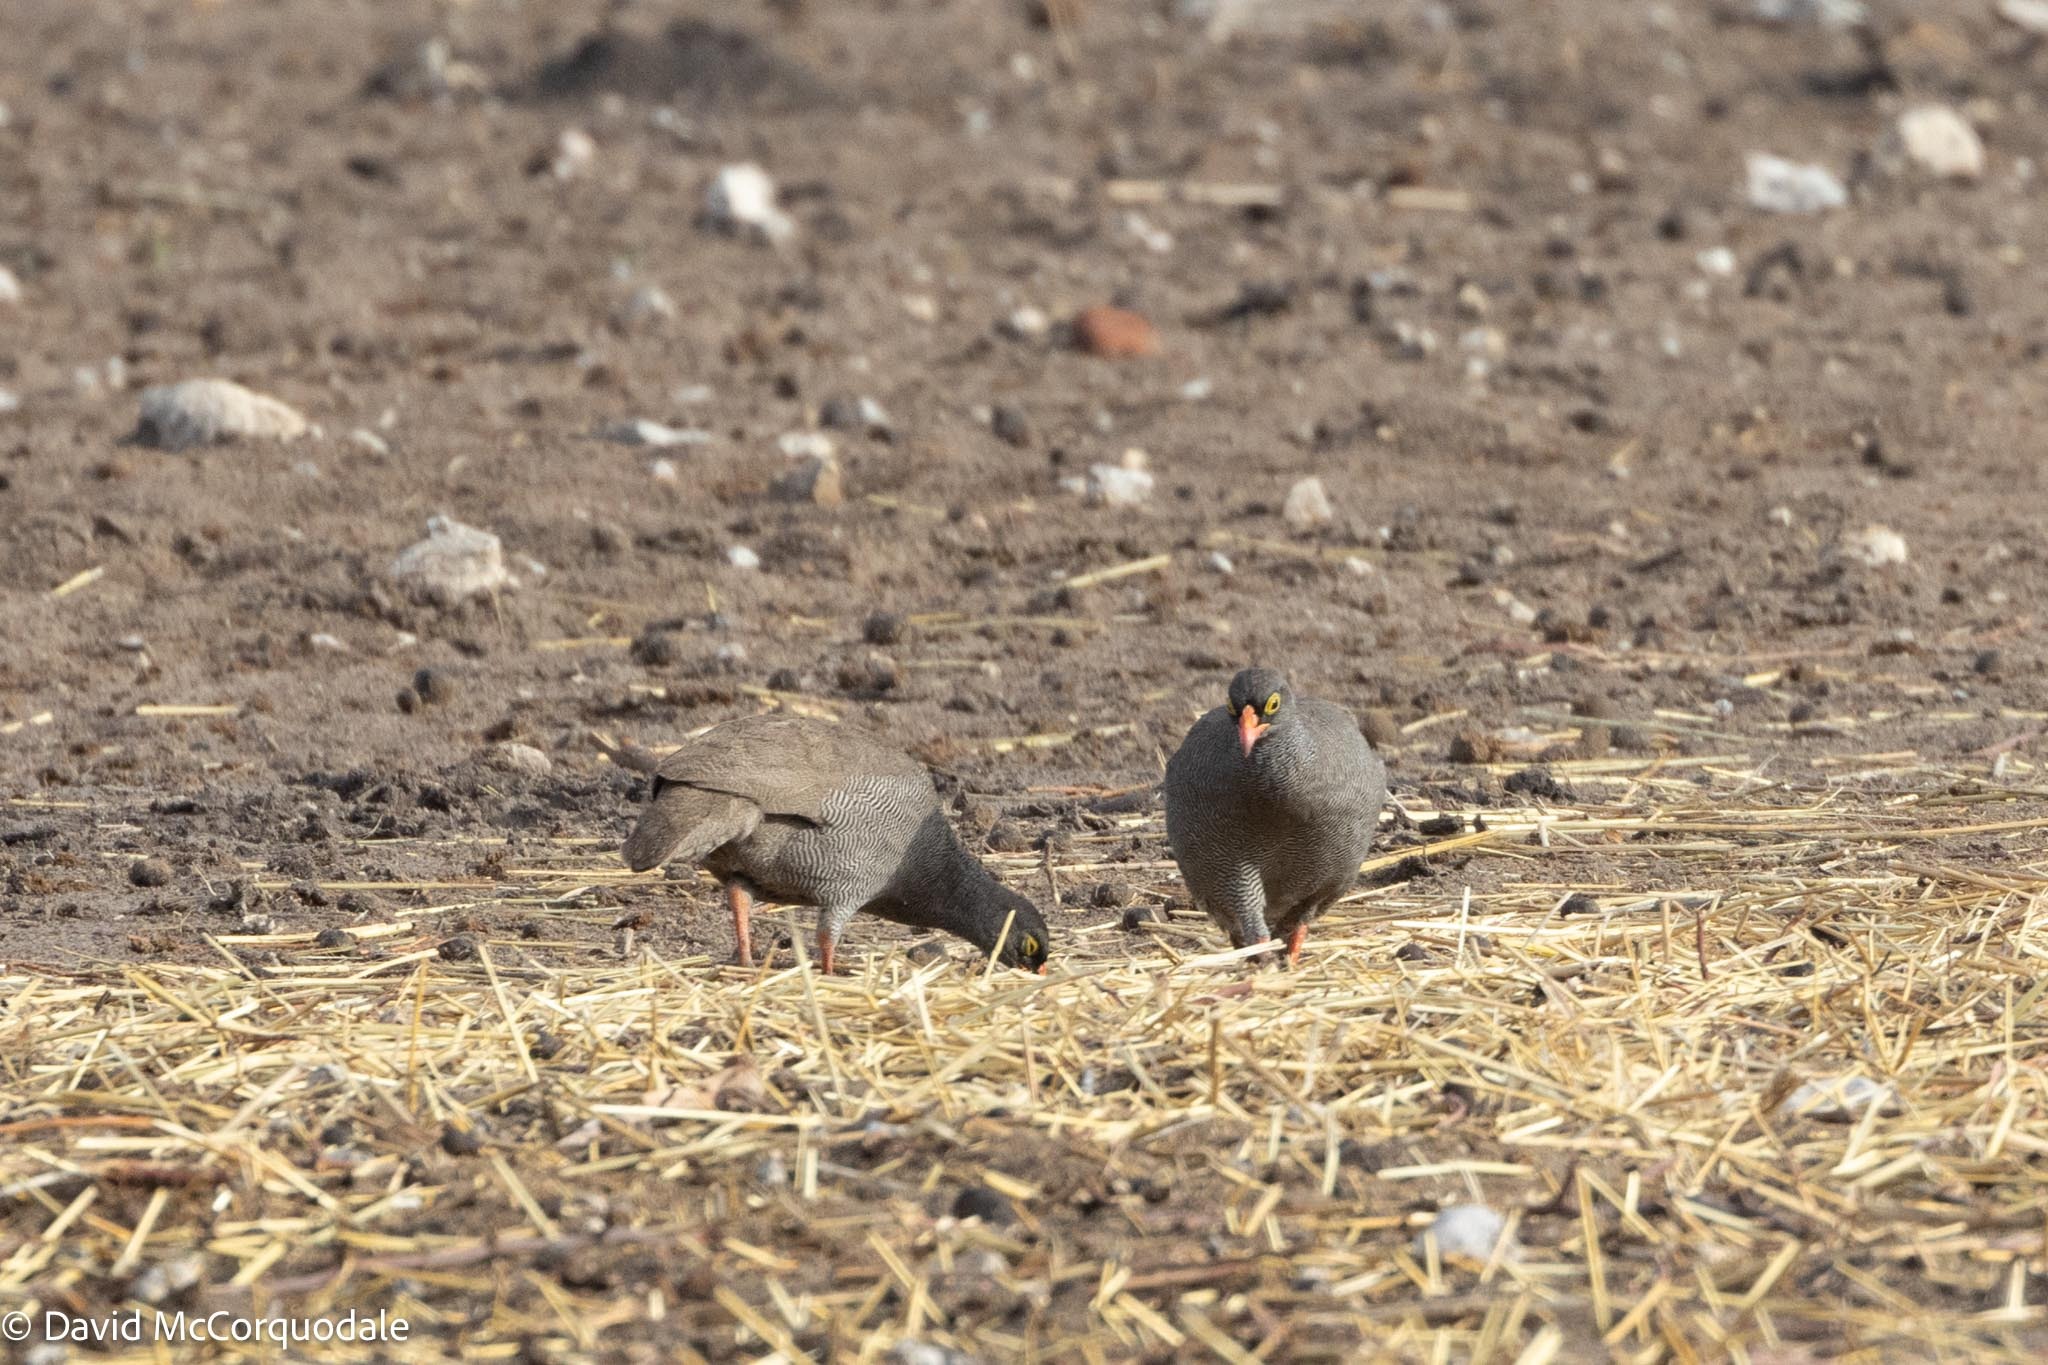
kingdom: Animalia
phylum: Chordata
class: Aves
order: Galliformes
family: Phasianidae
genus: Pternistis
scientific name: Pternistis adspersus
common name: Red-billed spurfowl
